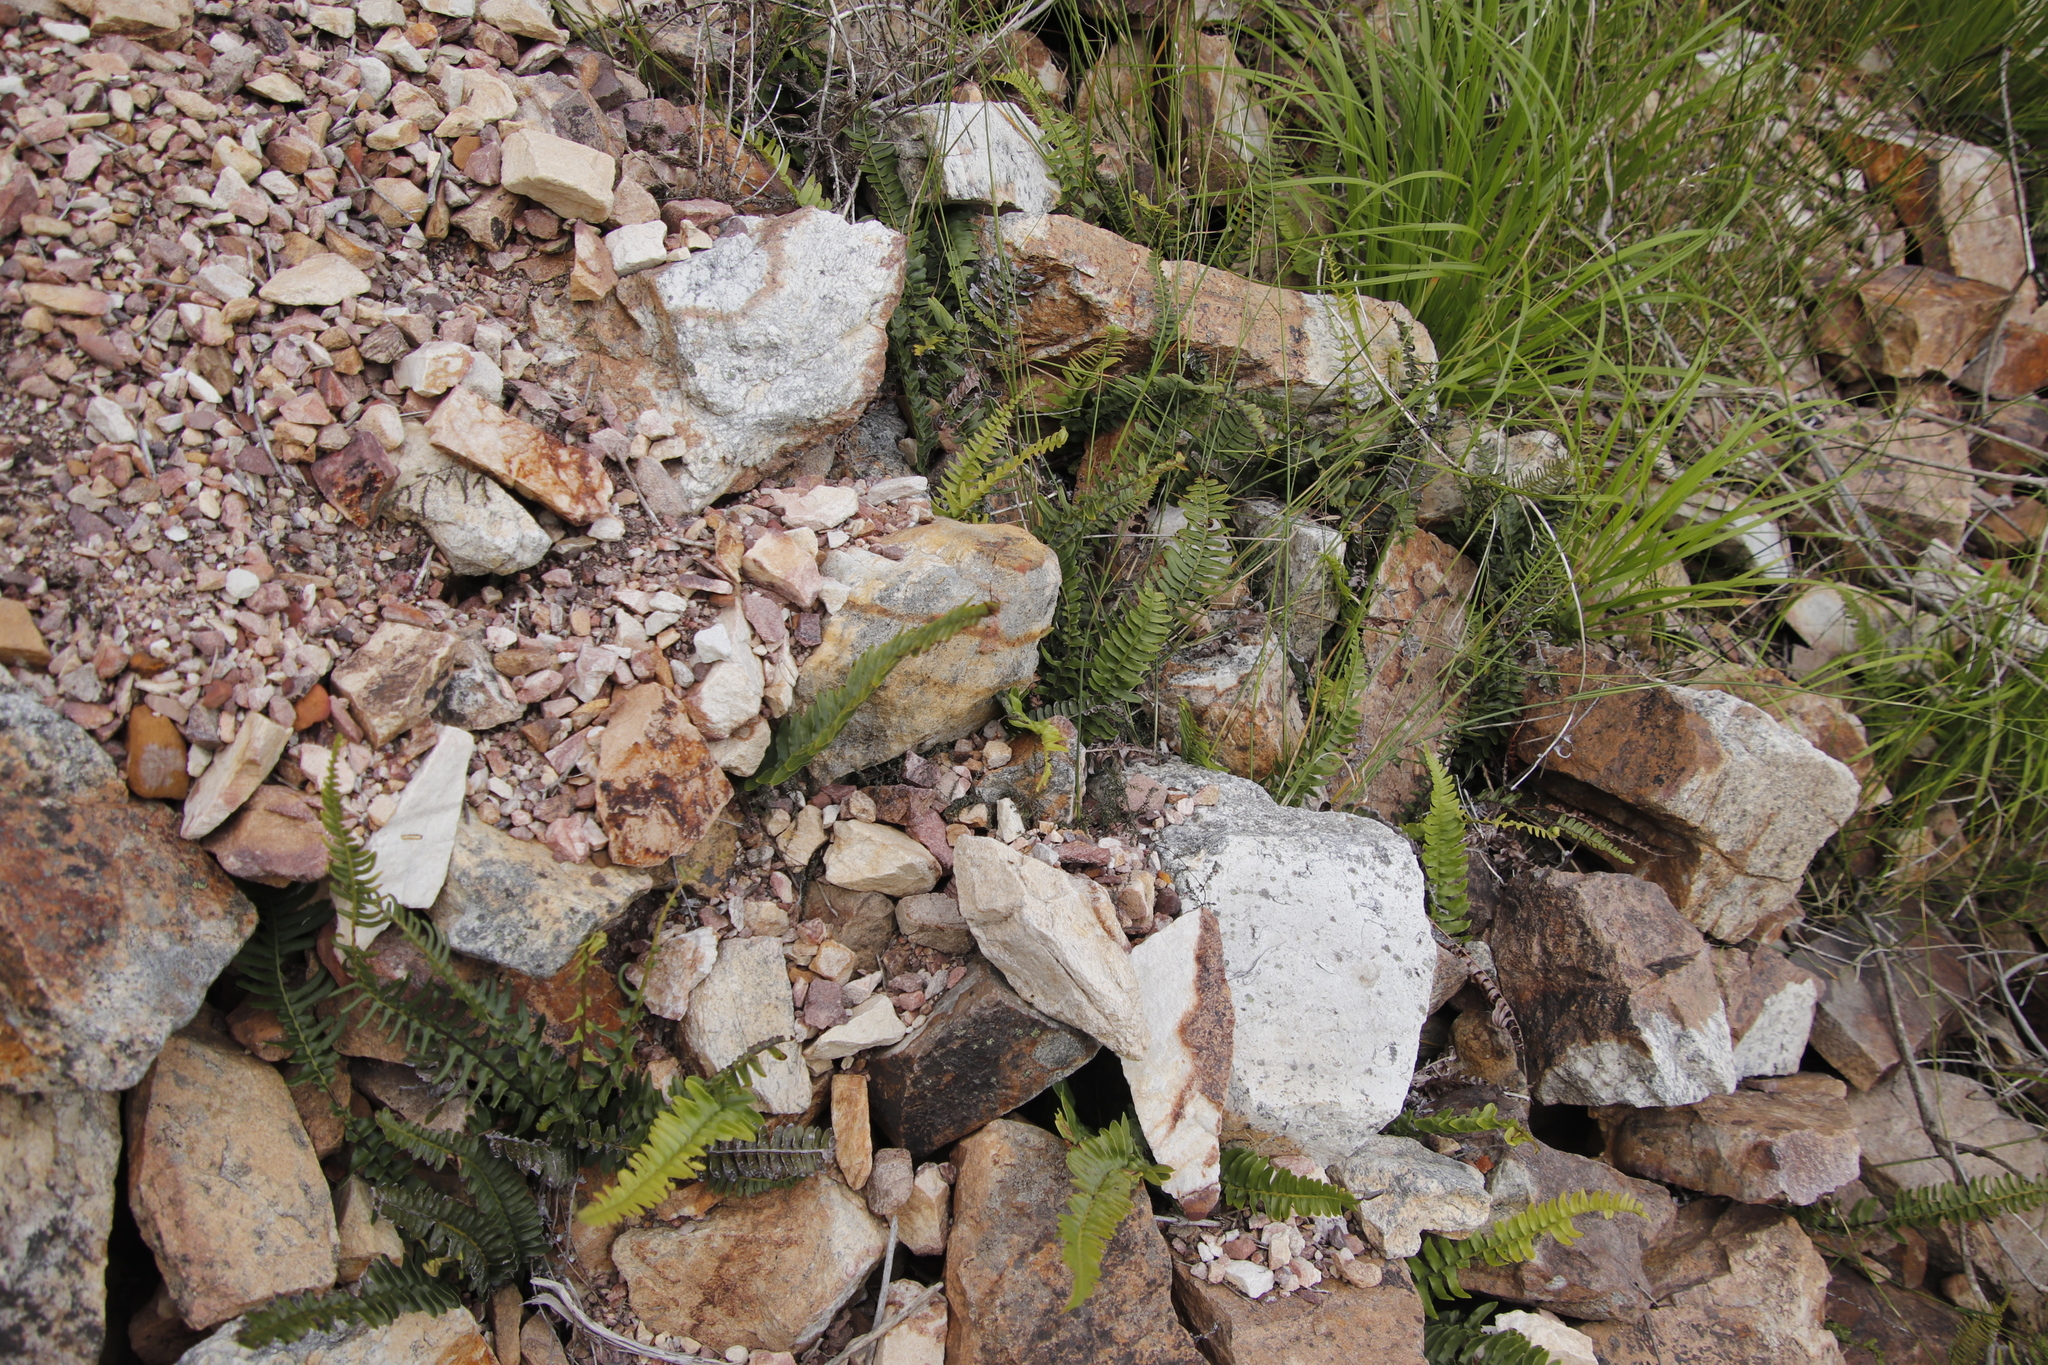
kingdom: Plantae
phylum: Tracheophyta
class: Polypodiopsida
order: Polypodiales
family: Blechnaceae
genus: Blechnum
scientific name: Blechnum punctulatum
